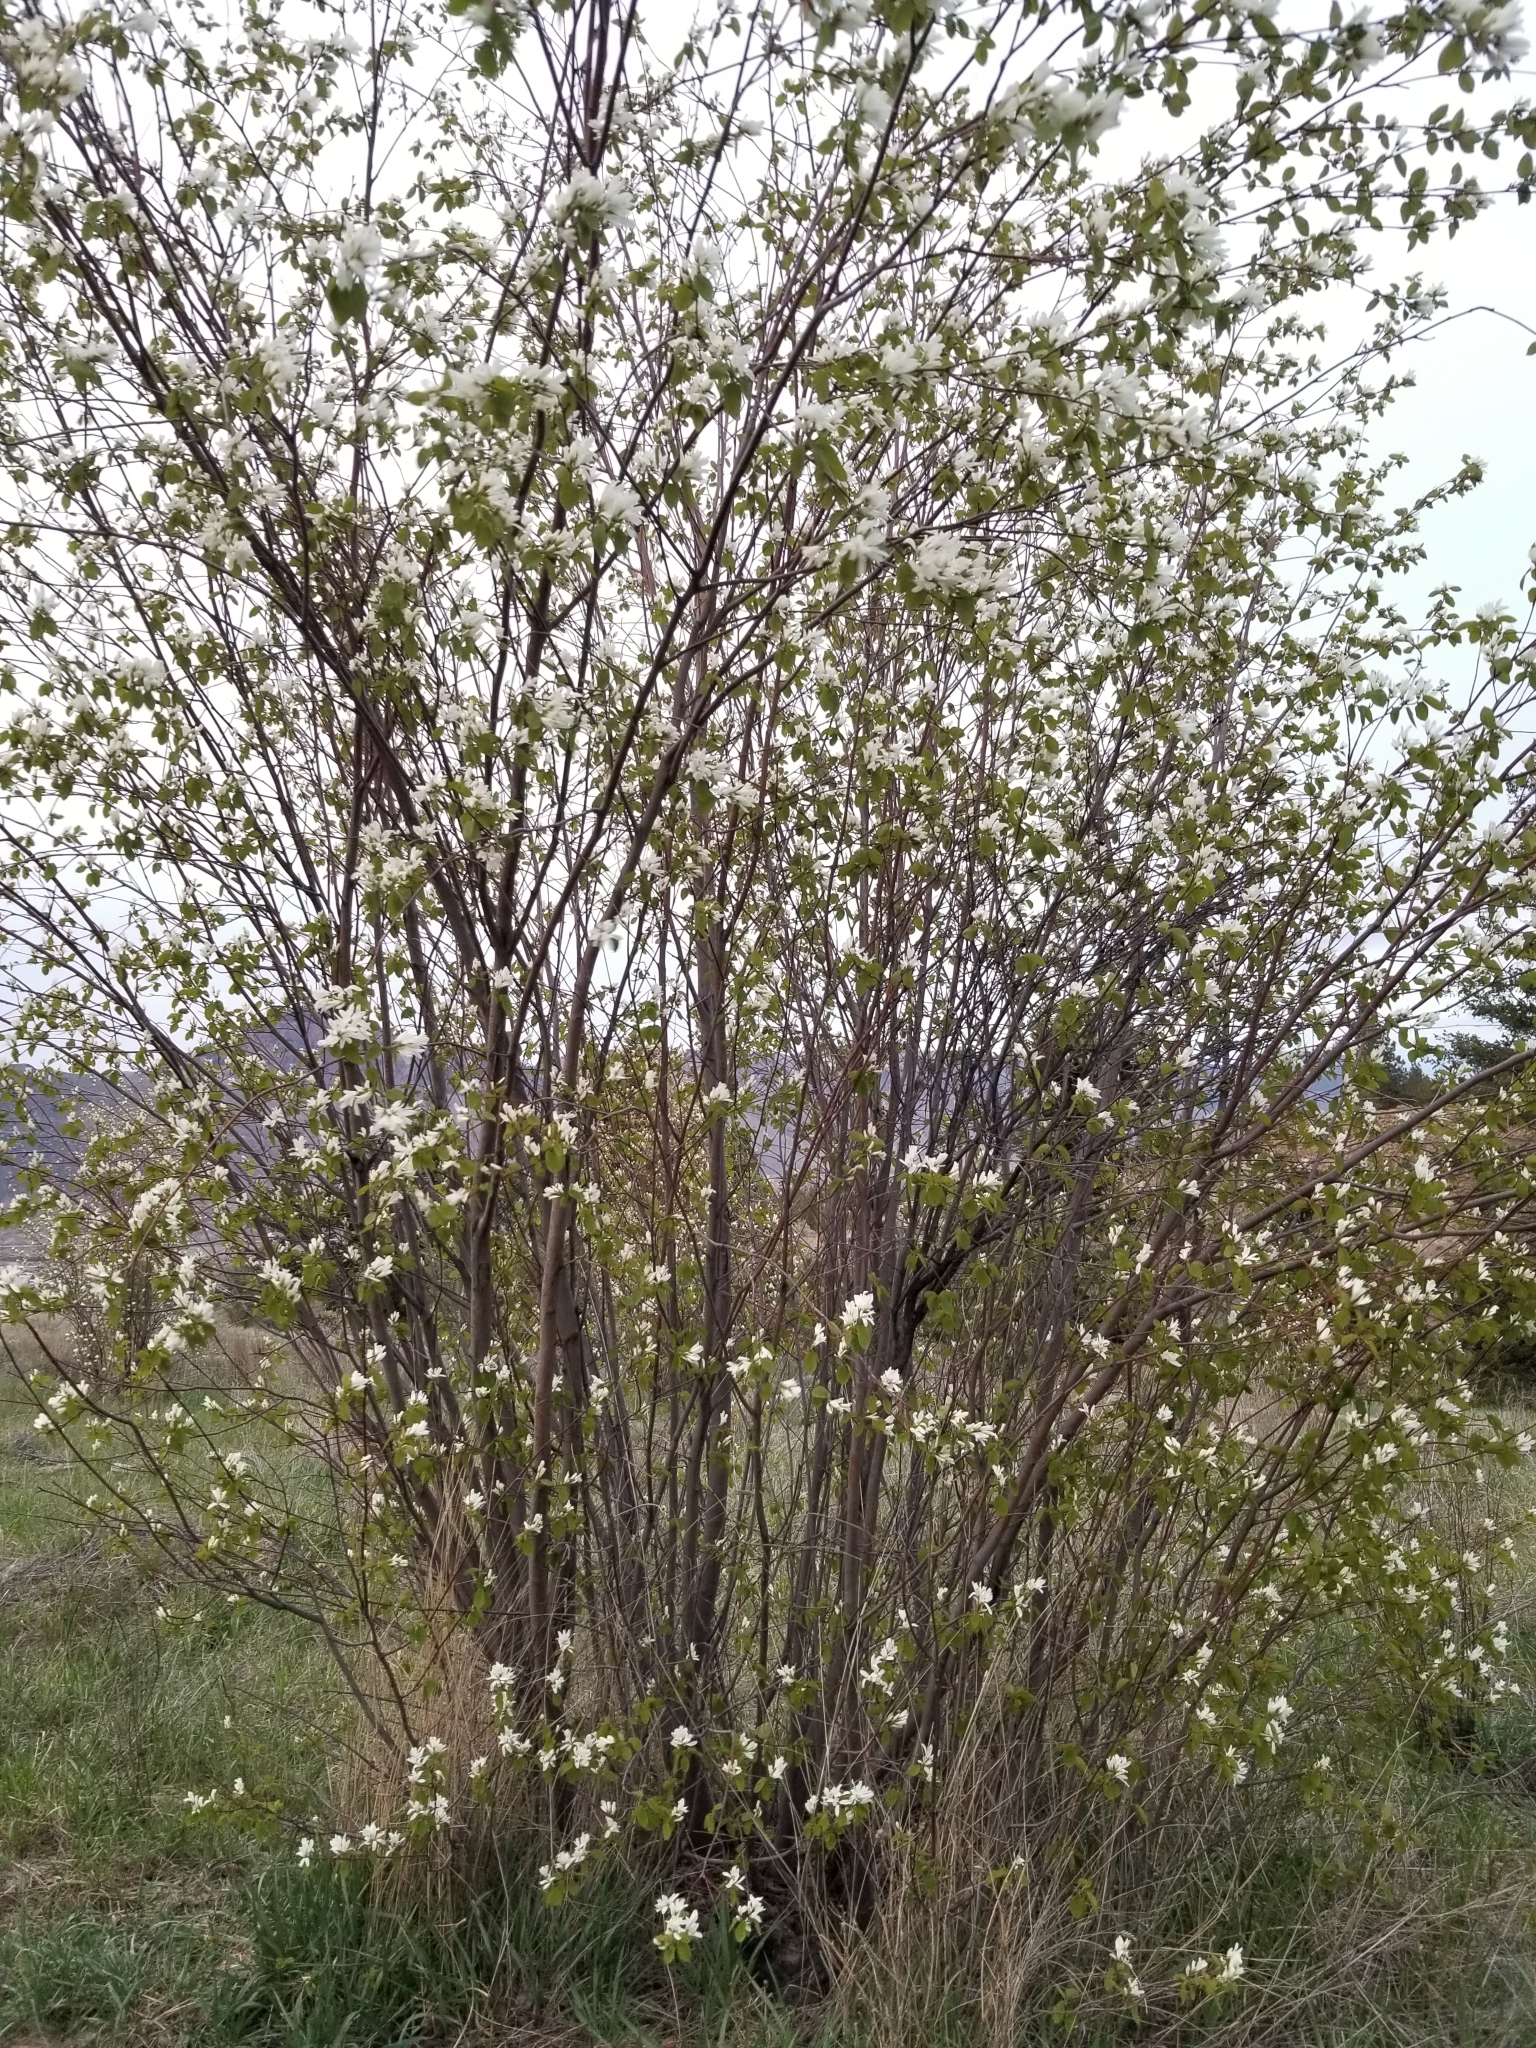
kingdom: Plantae
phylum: Tracheophyta
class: Magnoliopsida
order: Rosales
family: Rosaceae
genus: Amelanchier
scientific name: Amelanchier alnifolia
